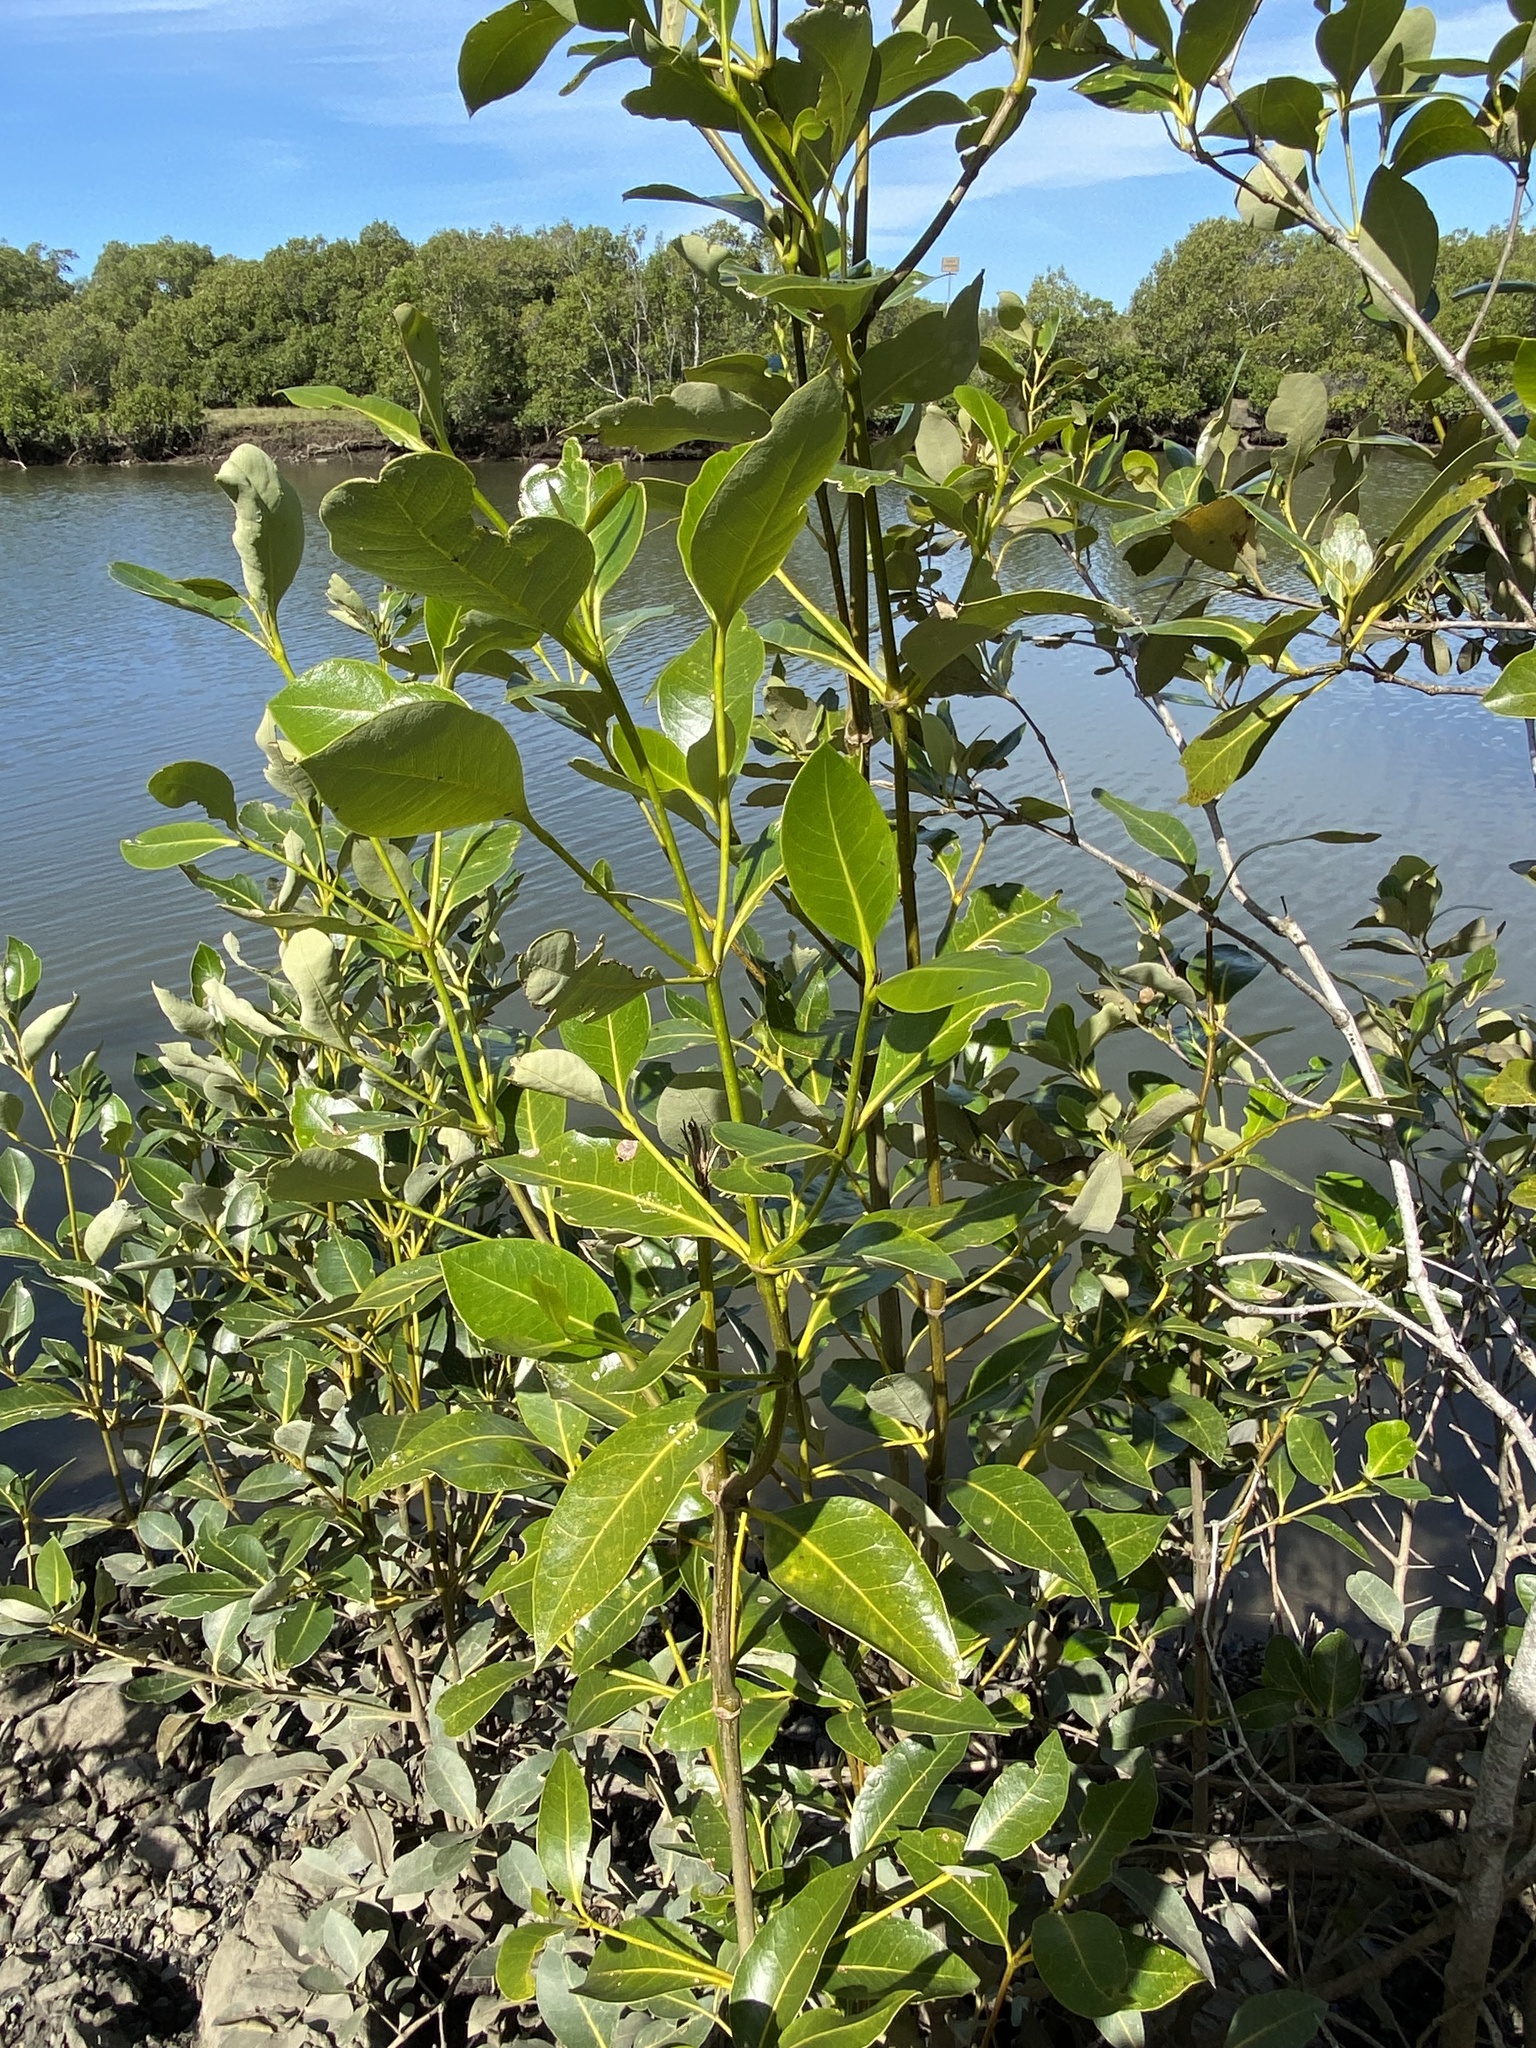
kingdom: Plantae
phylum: Tracheophyta
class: Magnoliopsida
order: Lamiales
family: Acanthaceae
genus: Avicennia
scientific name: Avicennia marina
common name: Gray mangrove
